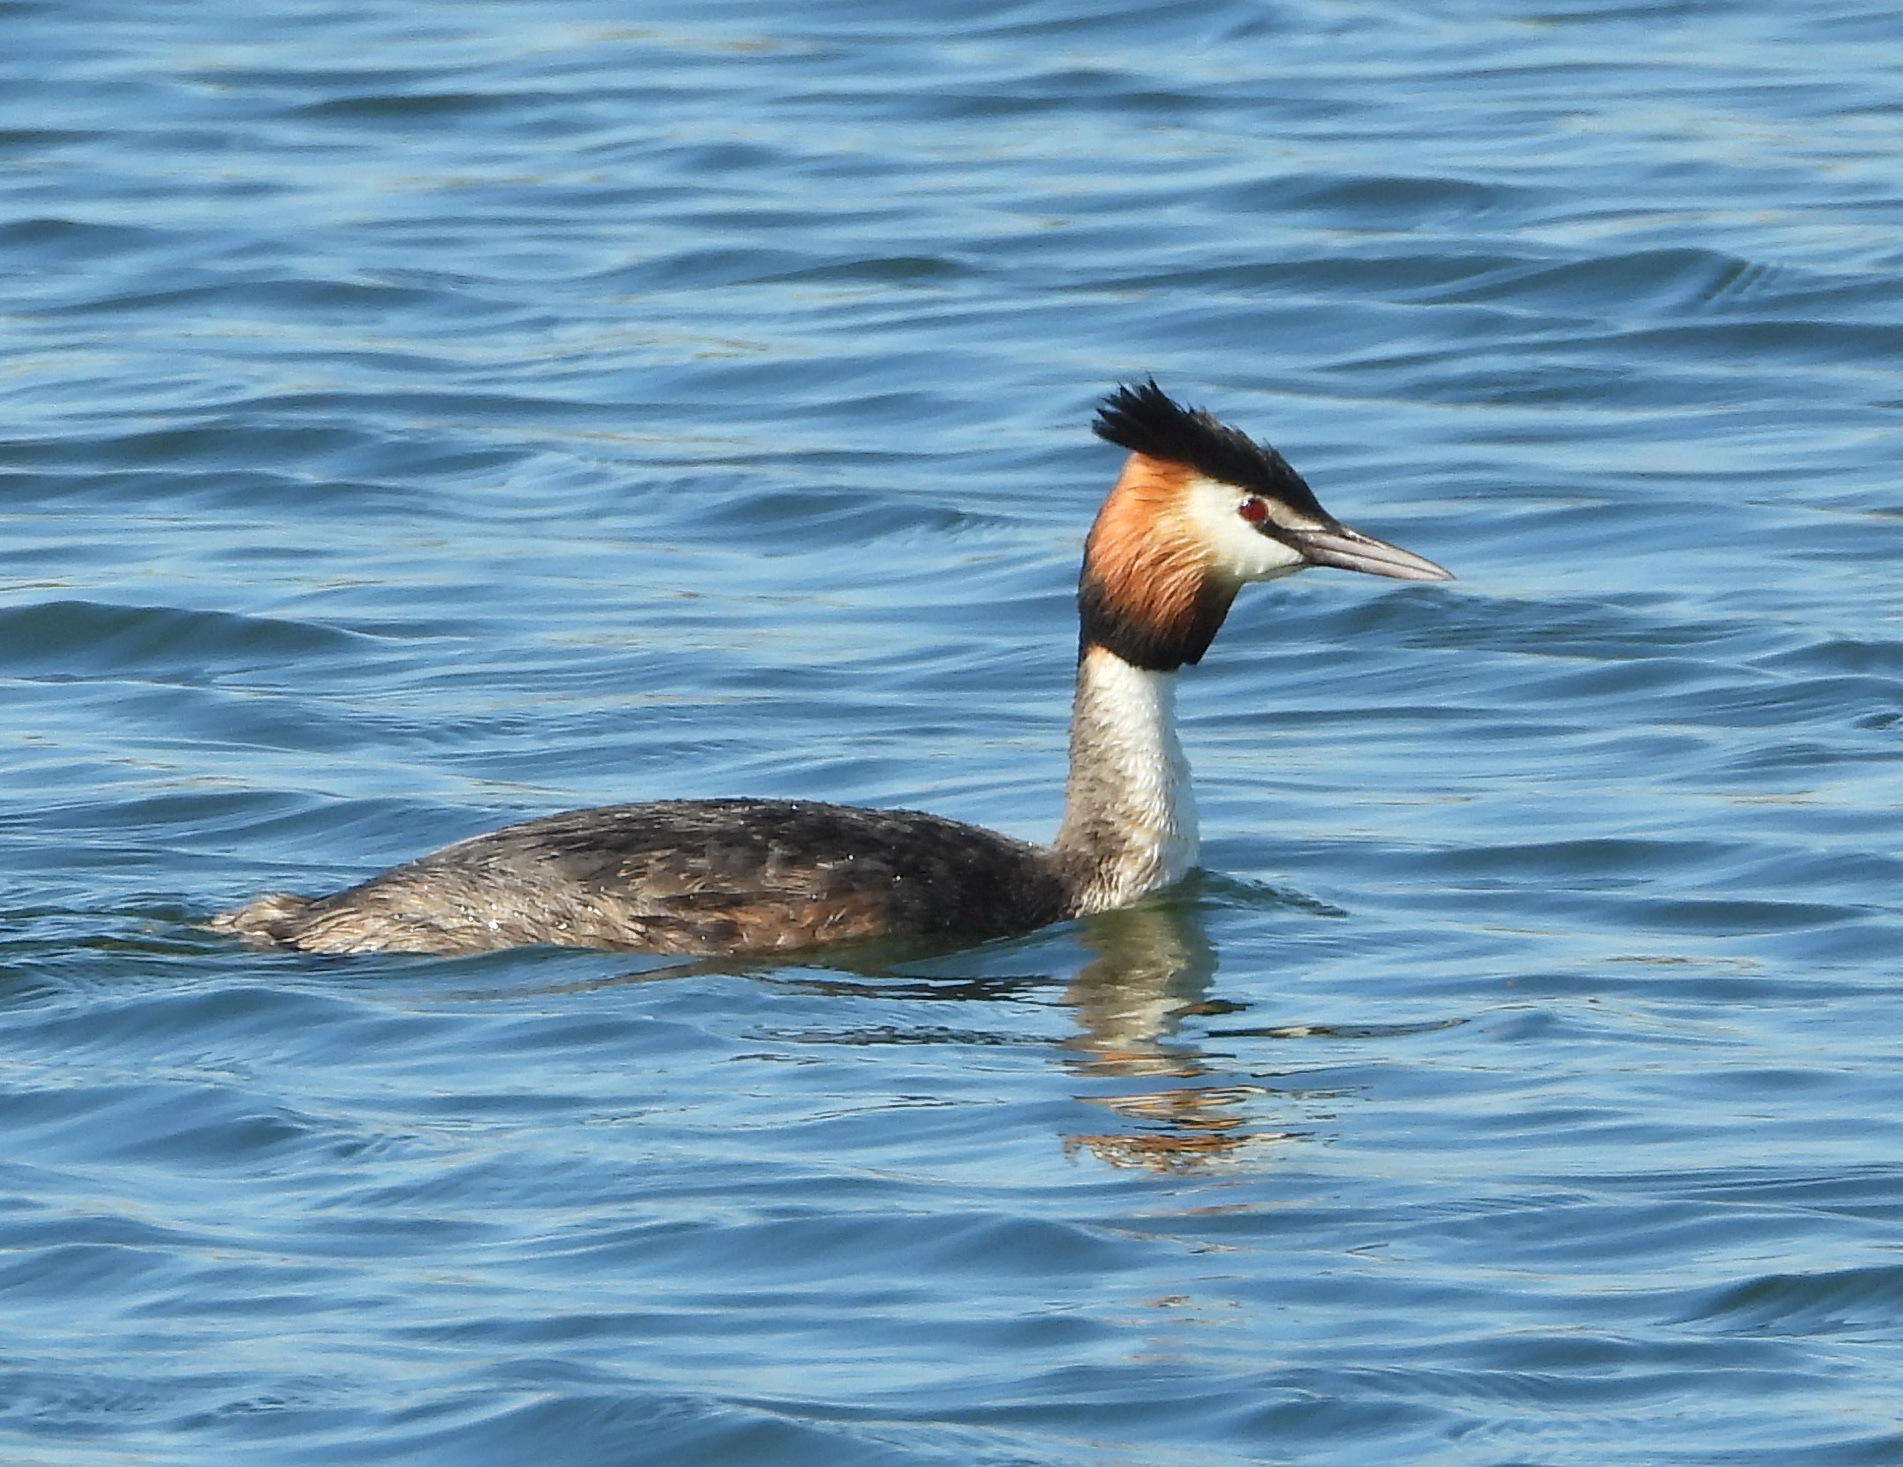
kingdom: Animalia
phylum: Chordata
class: Aves
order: Podicipediformes
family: Podicipedidae
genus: Podiceps
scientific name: Podiceps cristatus
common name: Great crested grebe
